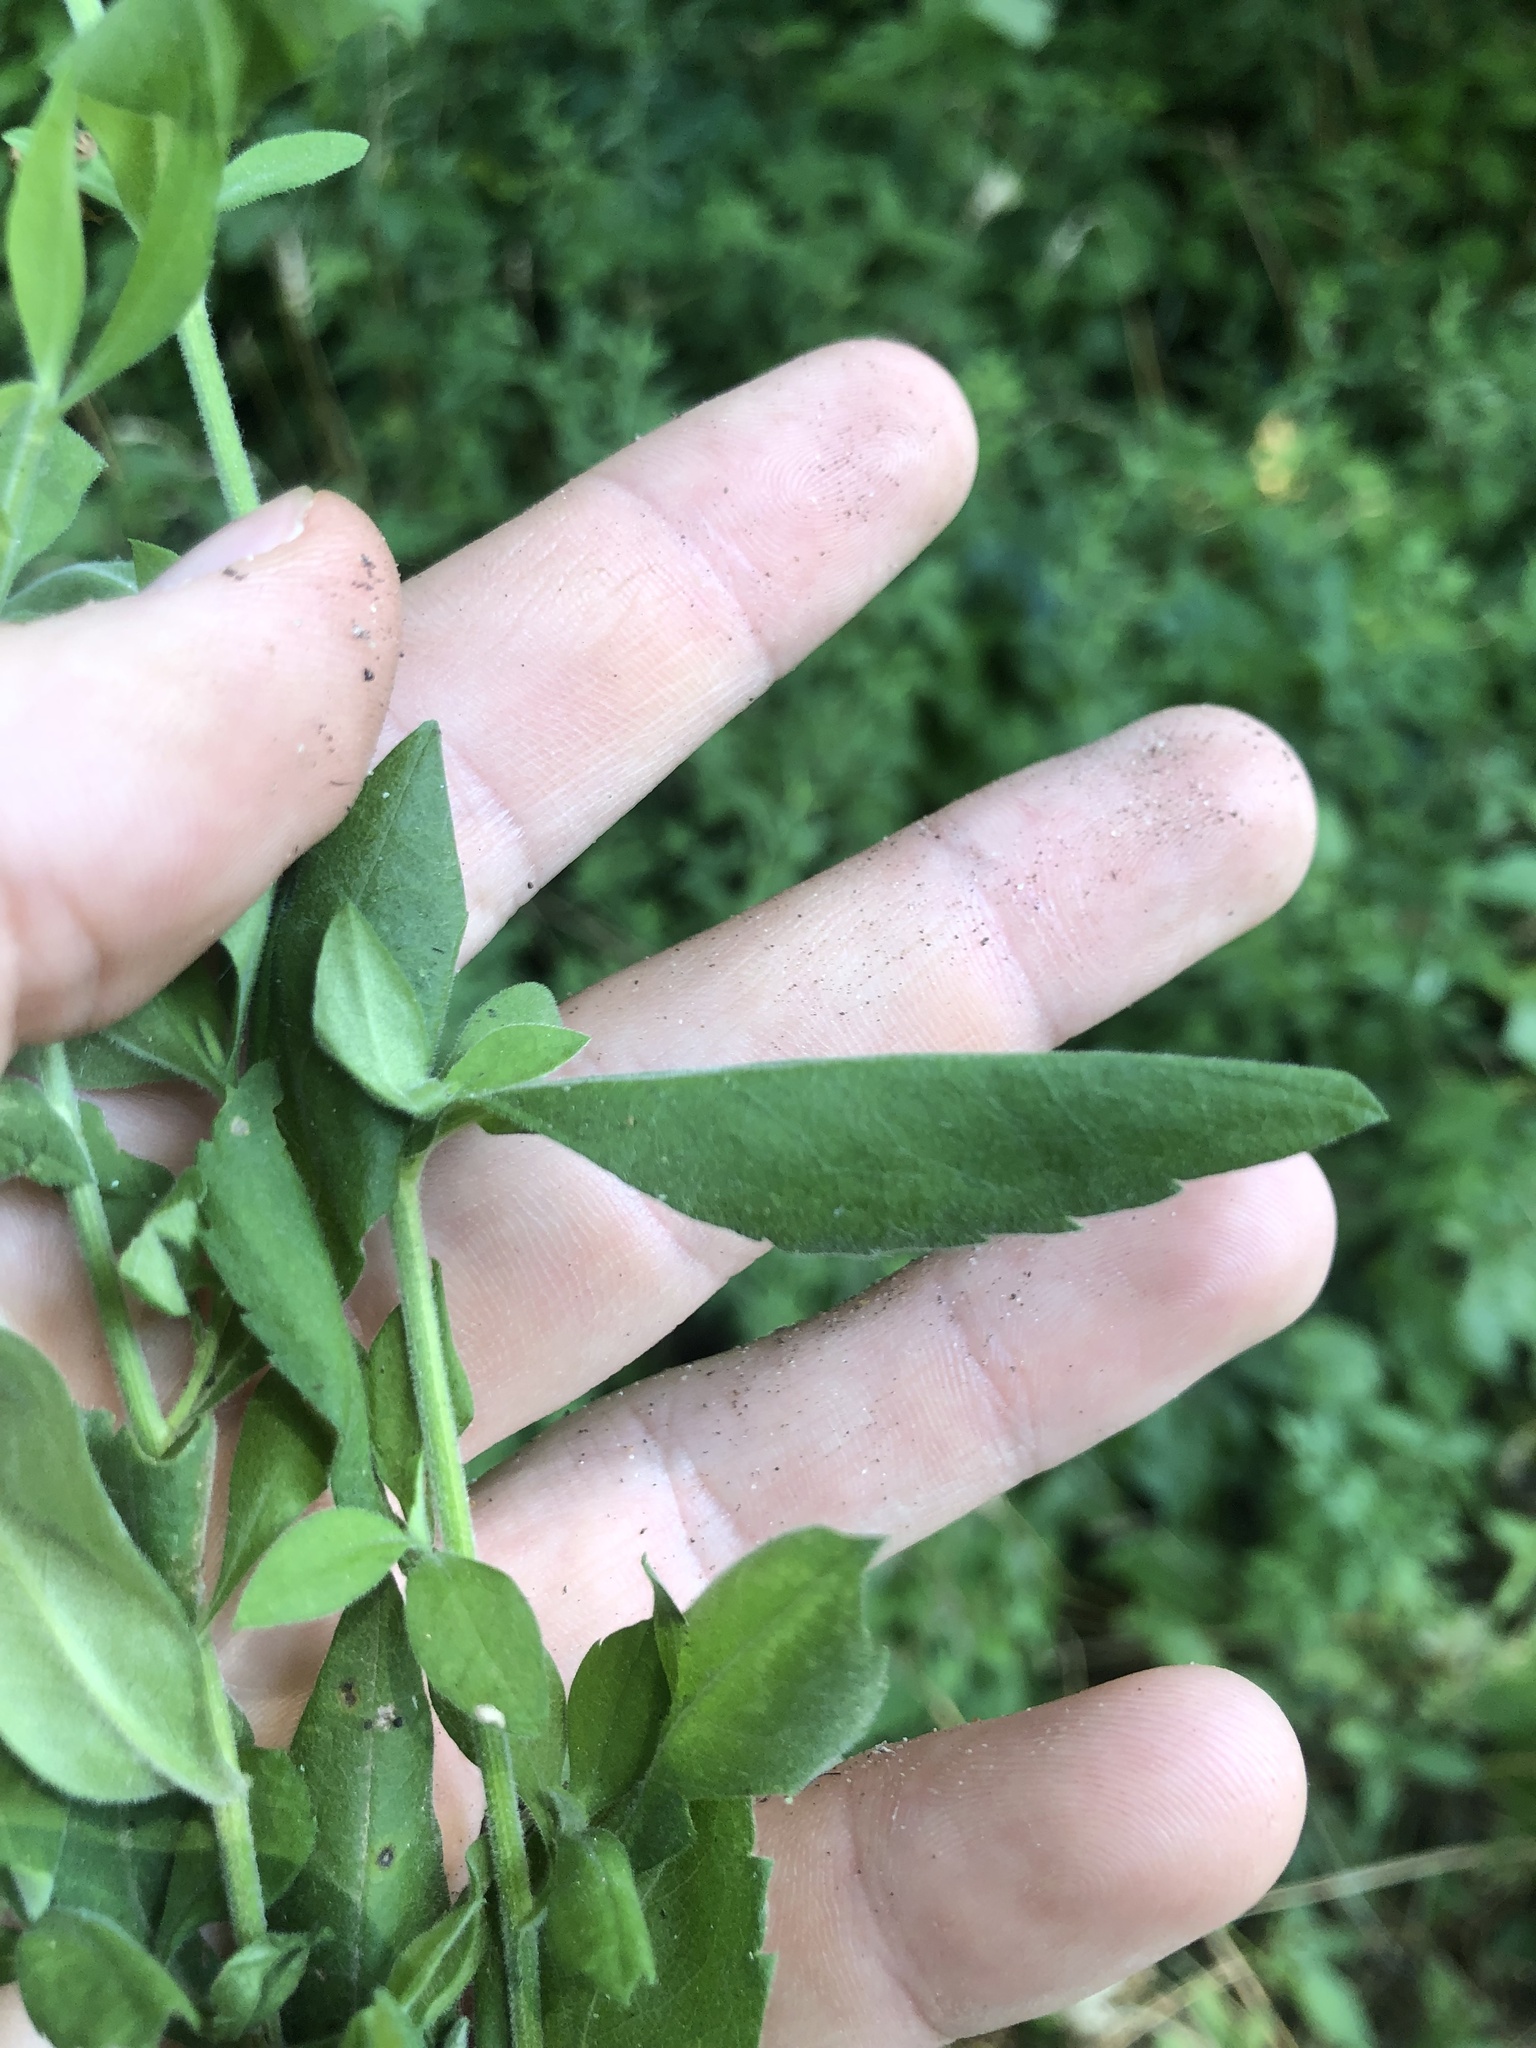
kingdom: Plantae
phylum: Tracheophyta
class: Magnoliopsida
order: Asterales
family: Asteraceae
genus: Symphyotrichum
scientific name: Symphyotrichum ontarionis
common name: Bottomland aster
